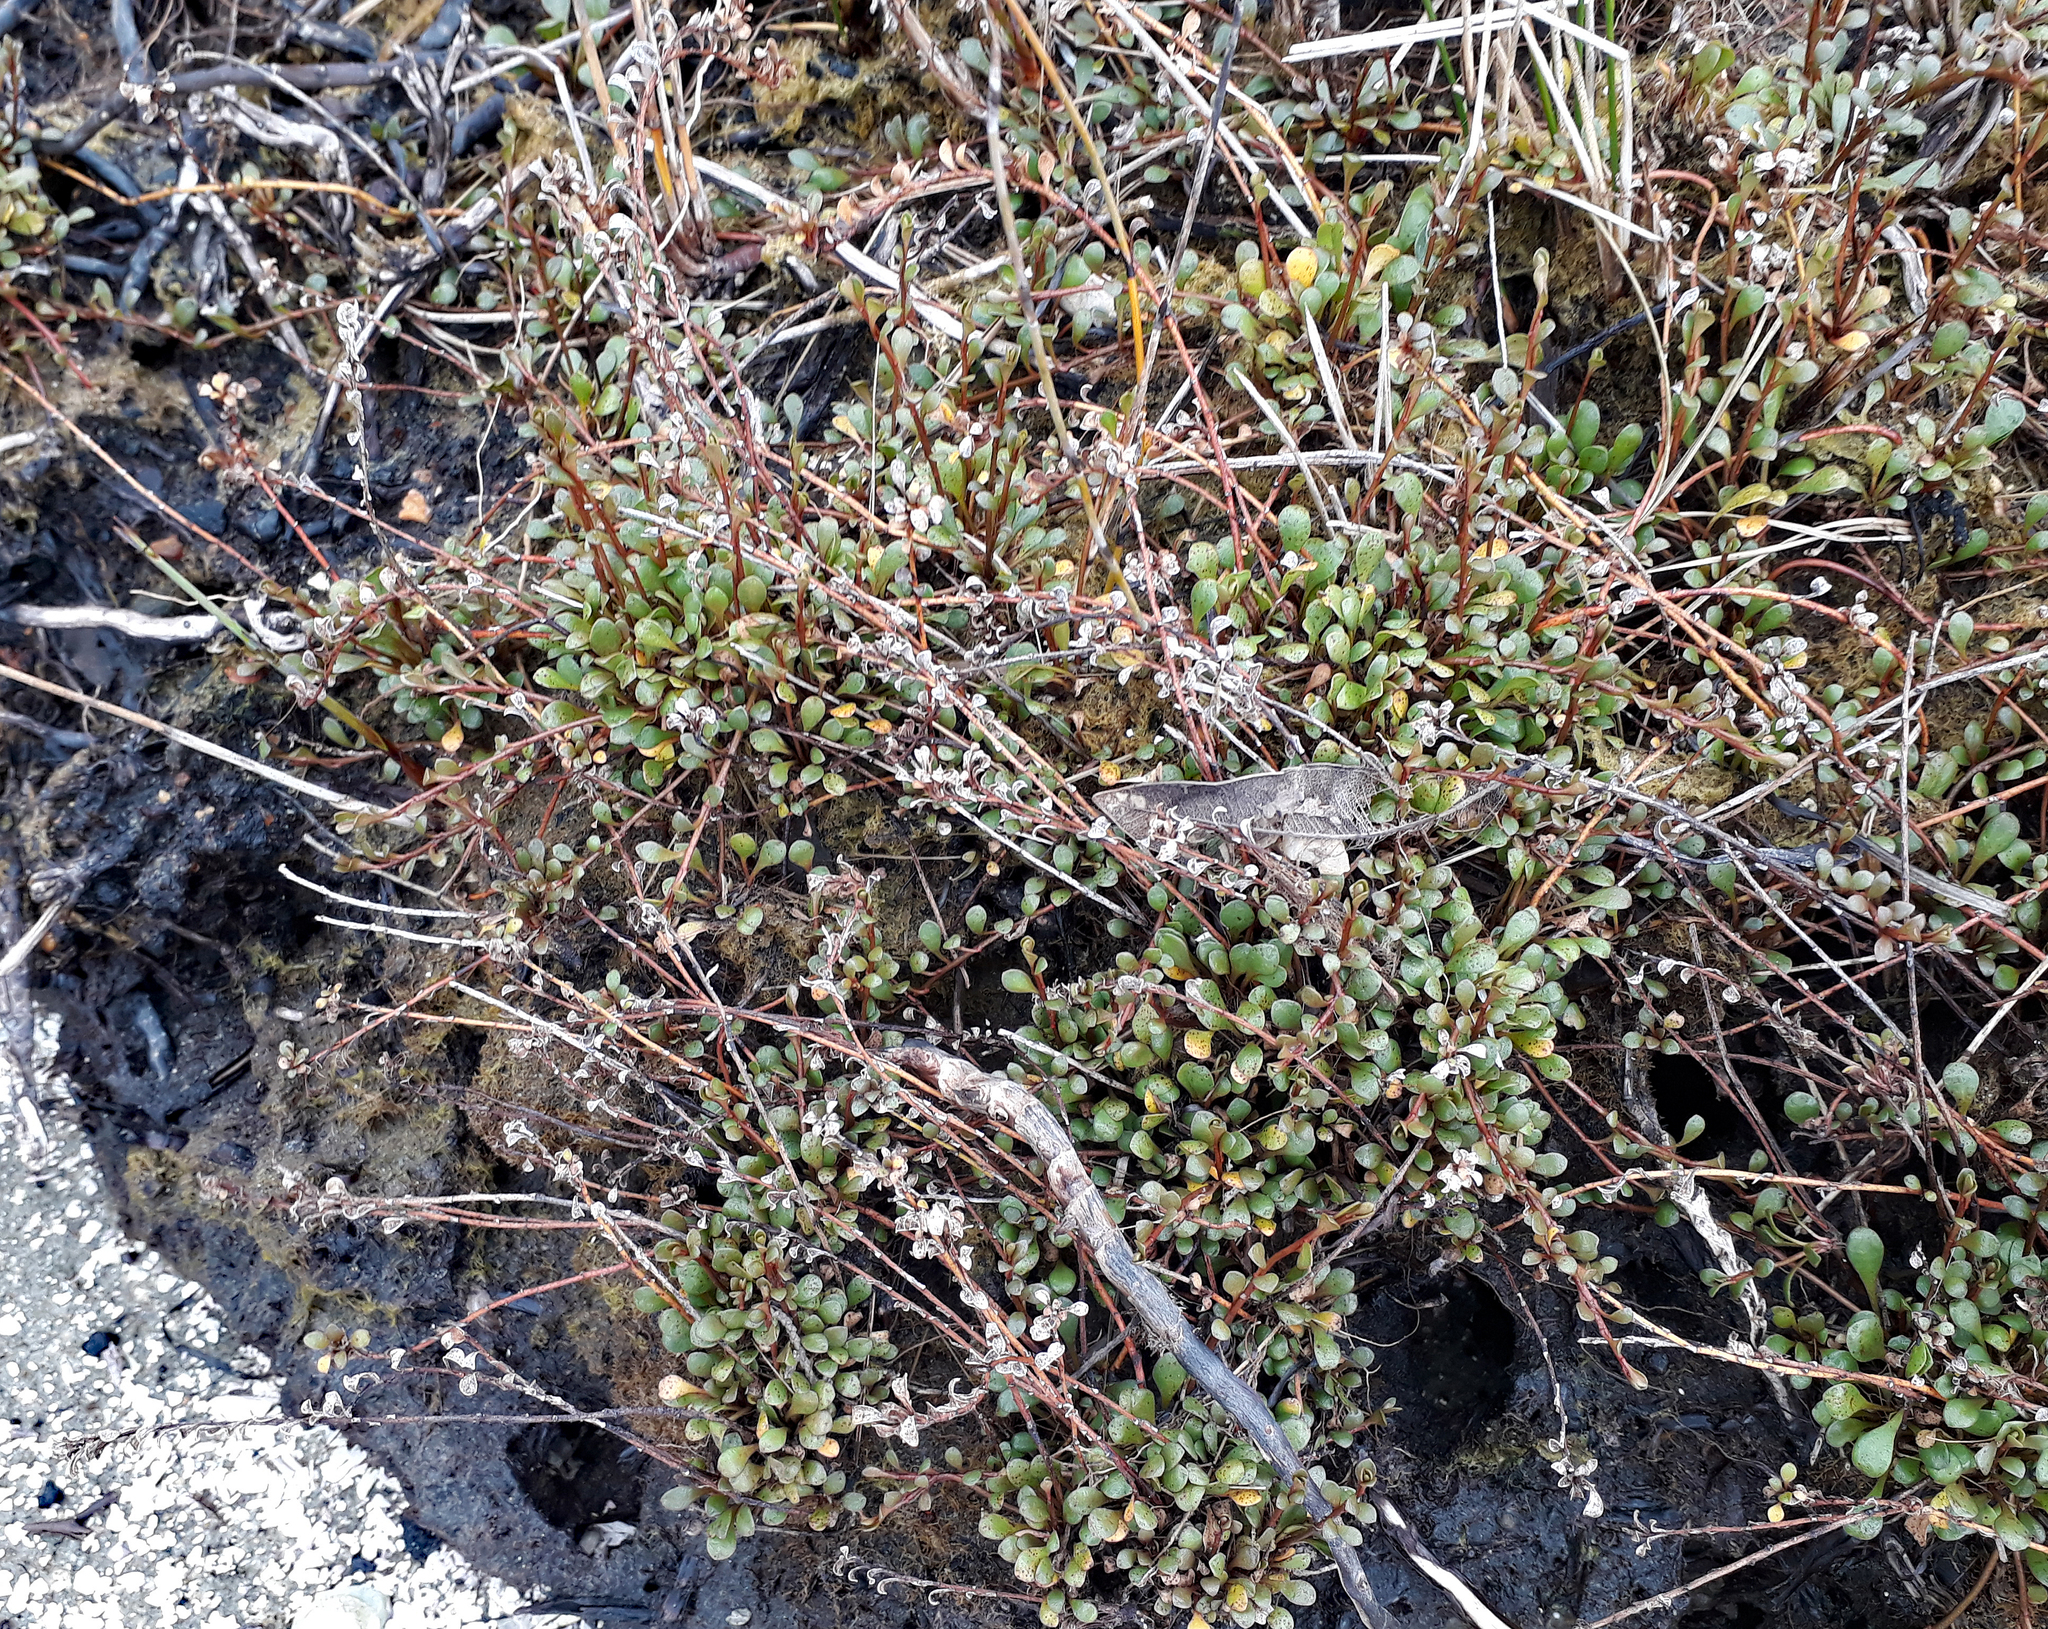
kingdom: Plantae
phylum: Tracheophyta
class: Magnoliopsida
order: Ericales
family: Primulaceae
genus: Samolus
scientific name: Samolus repens
